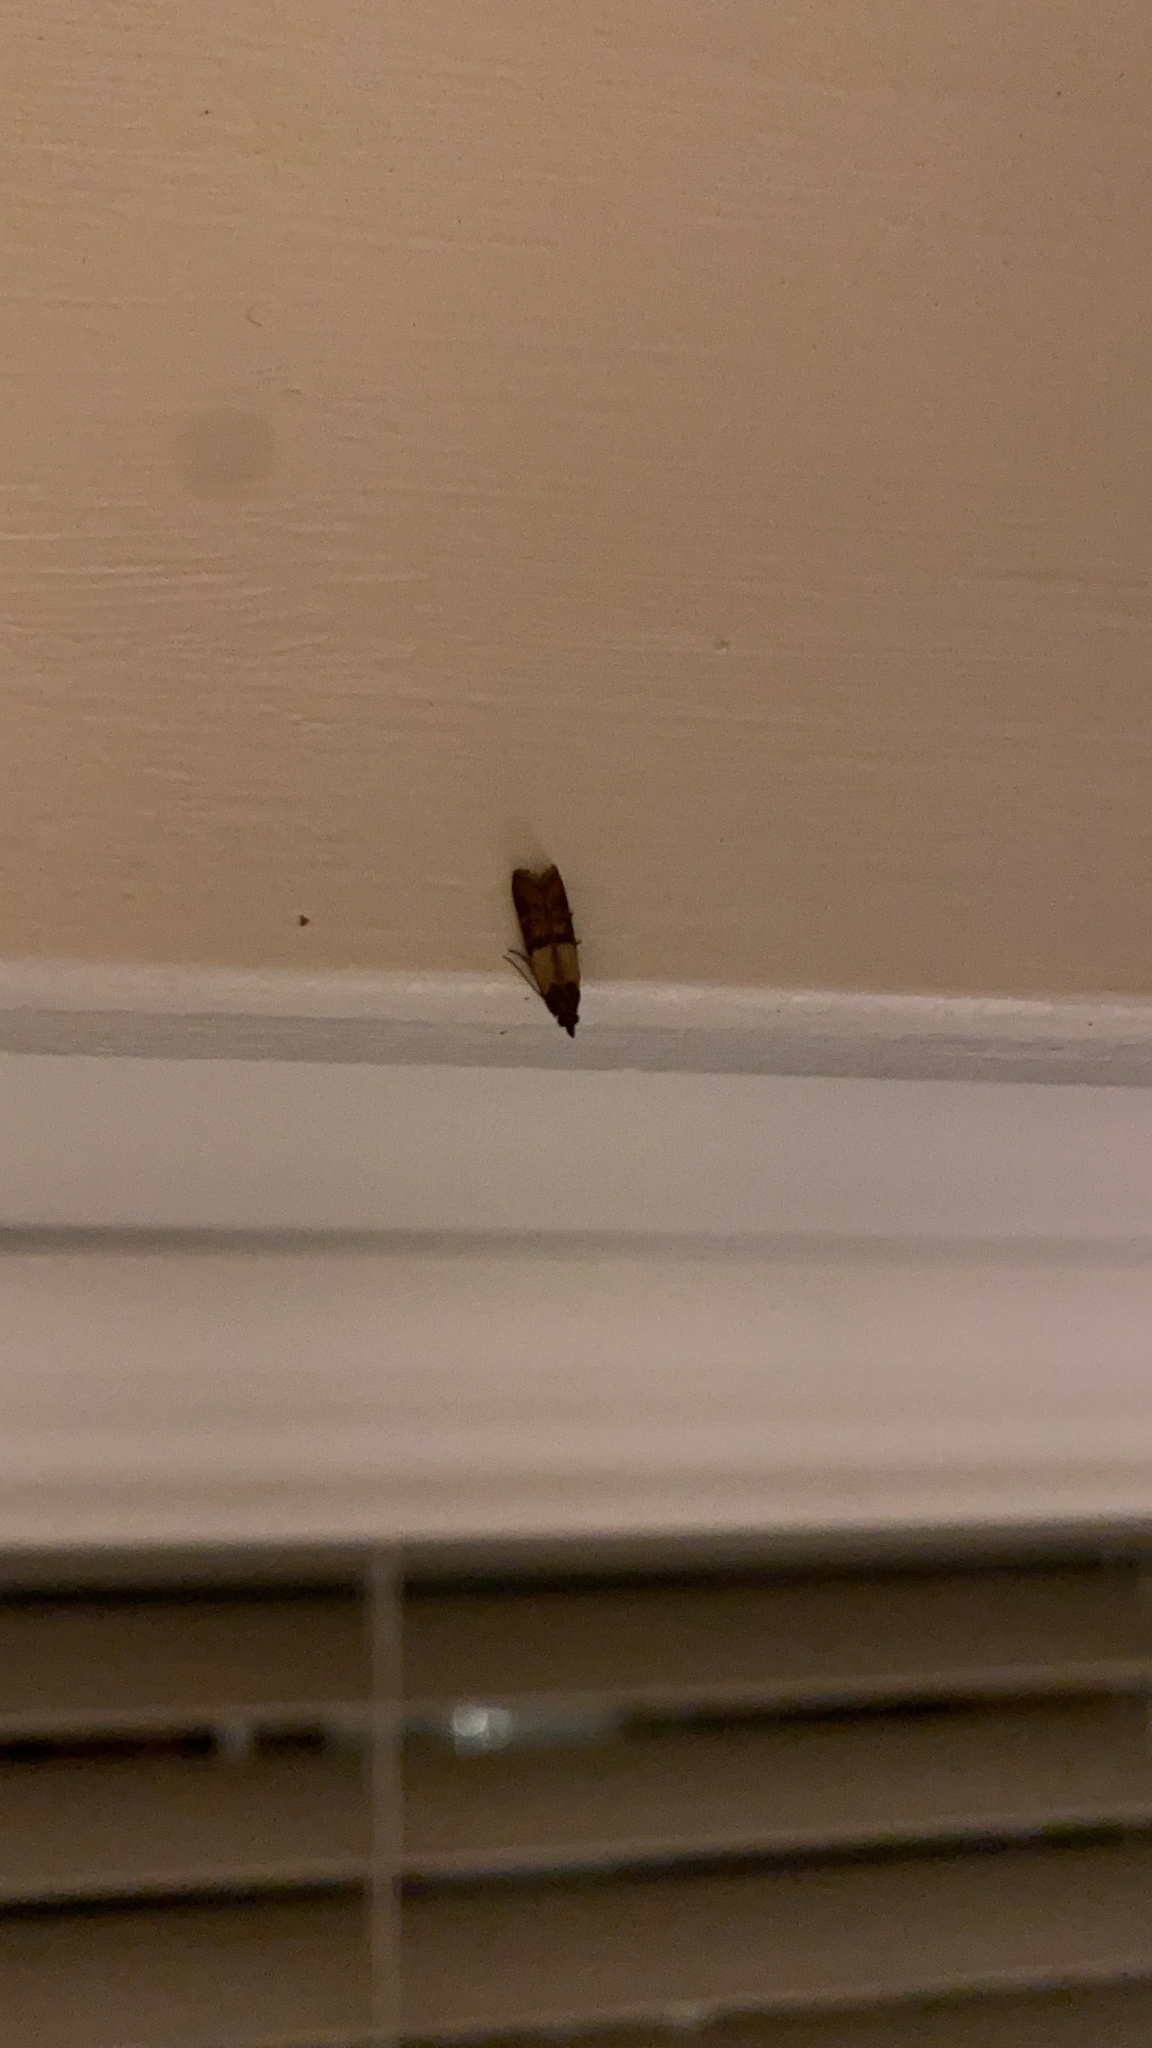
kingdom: Animalia
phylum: Arthropoda
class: Insecta
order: Lepidoptera
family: Pyralidae
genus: Plodia
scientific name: Plodia interpunctella
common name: Indian meal moth
